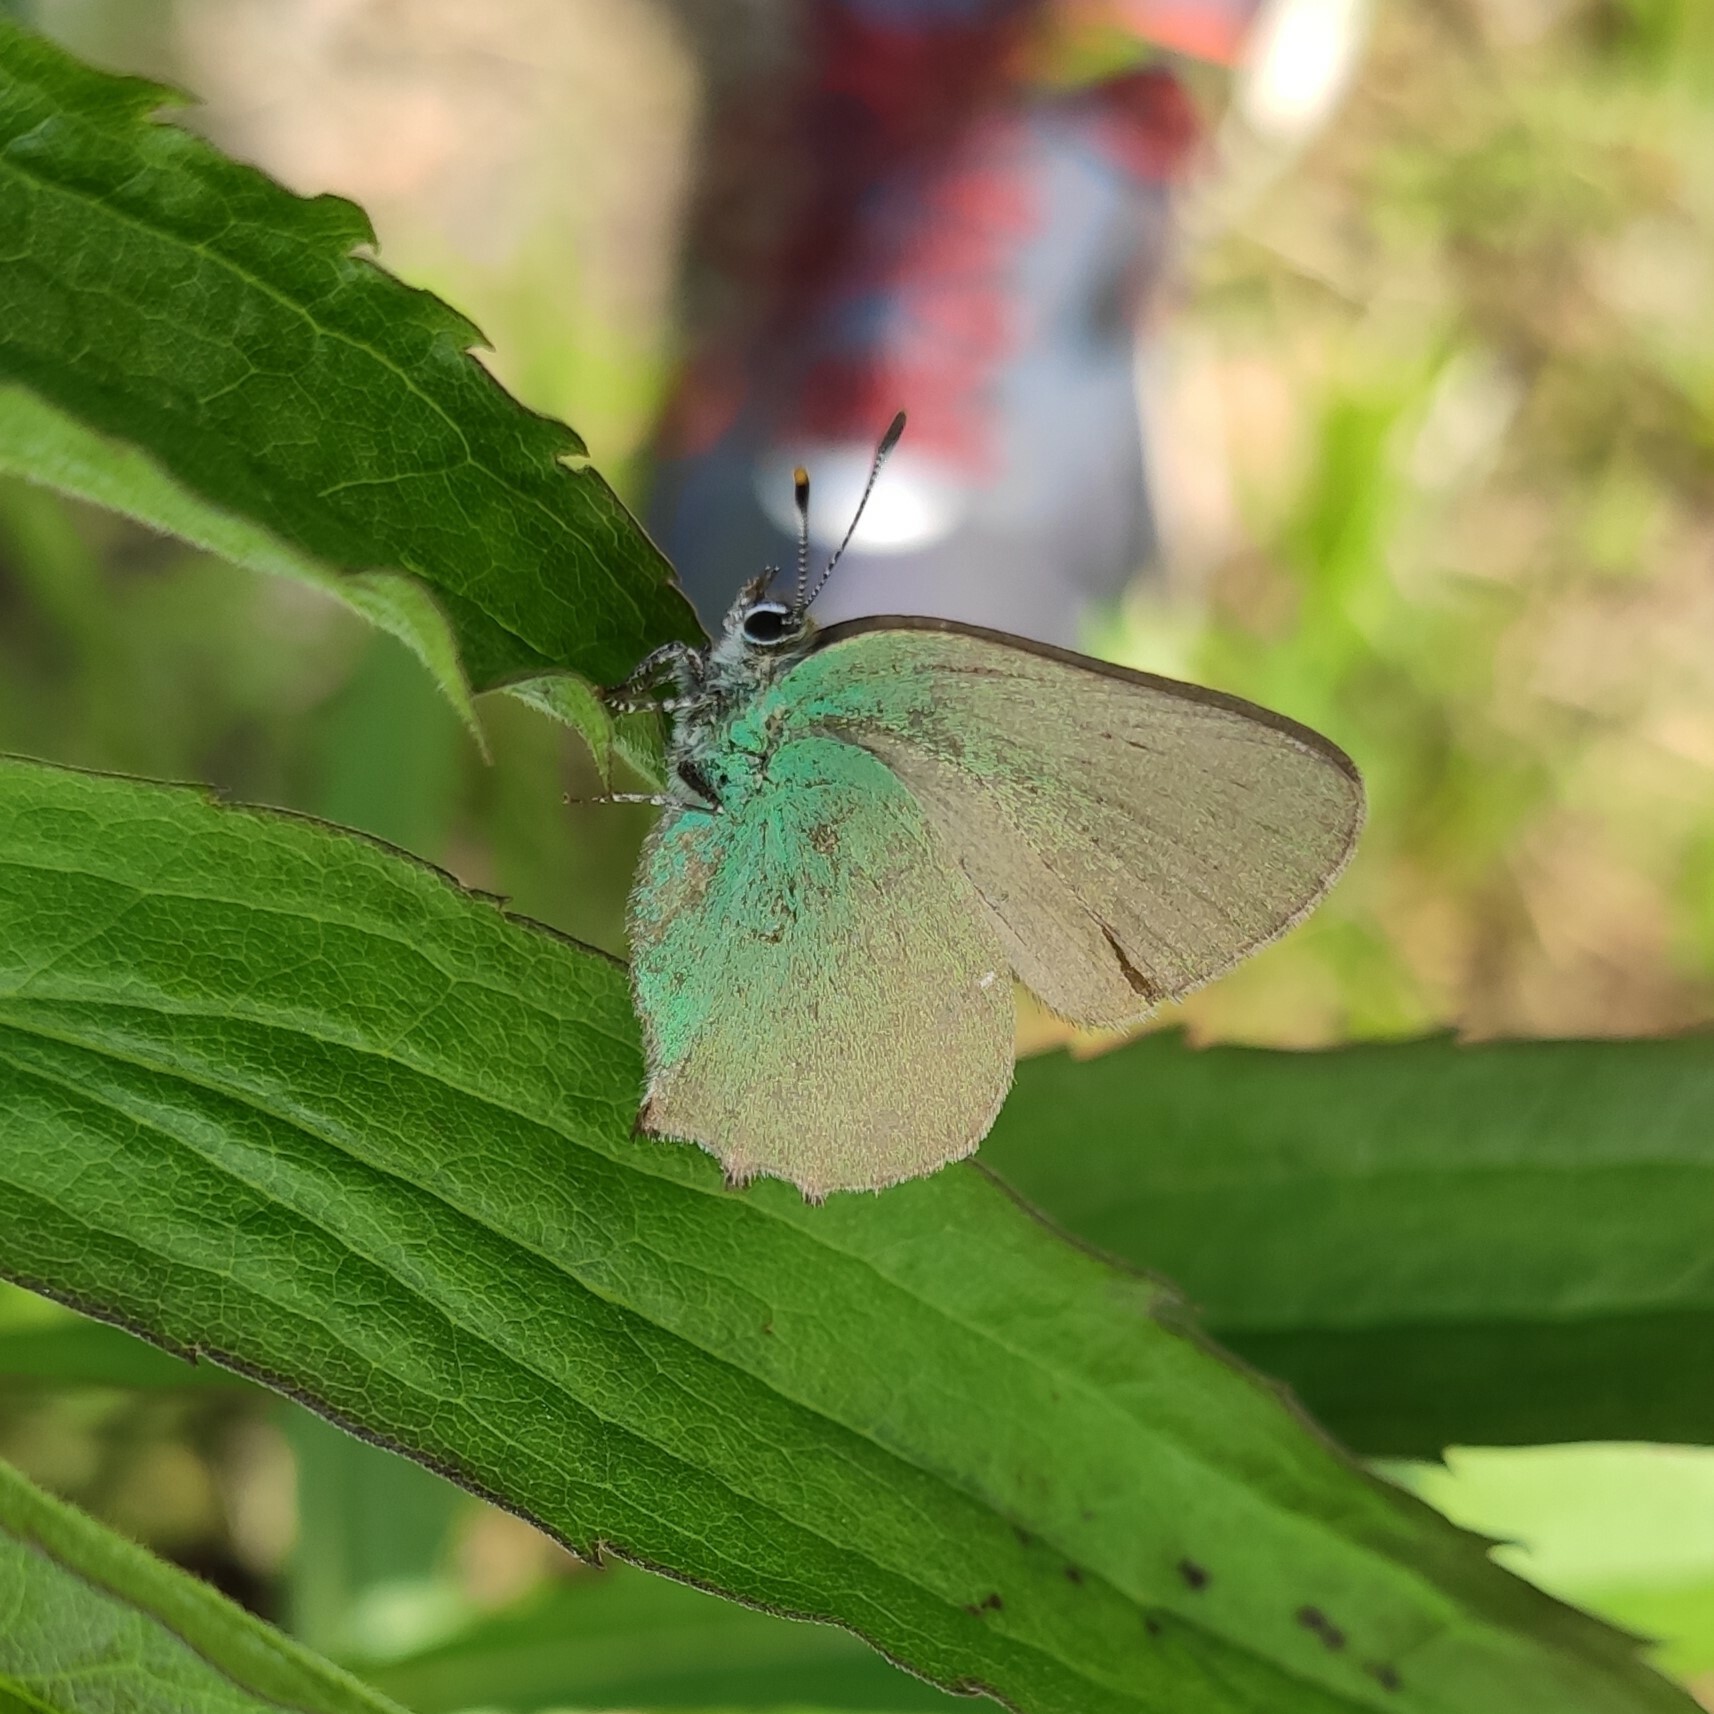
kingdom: Animalia
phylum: Arthropoda
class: Insecta
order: Lepidoptera
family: Lycaenidae
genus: Callophrys
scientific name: Callophrys rubi
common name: Green hairstreak
